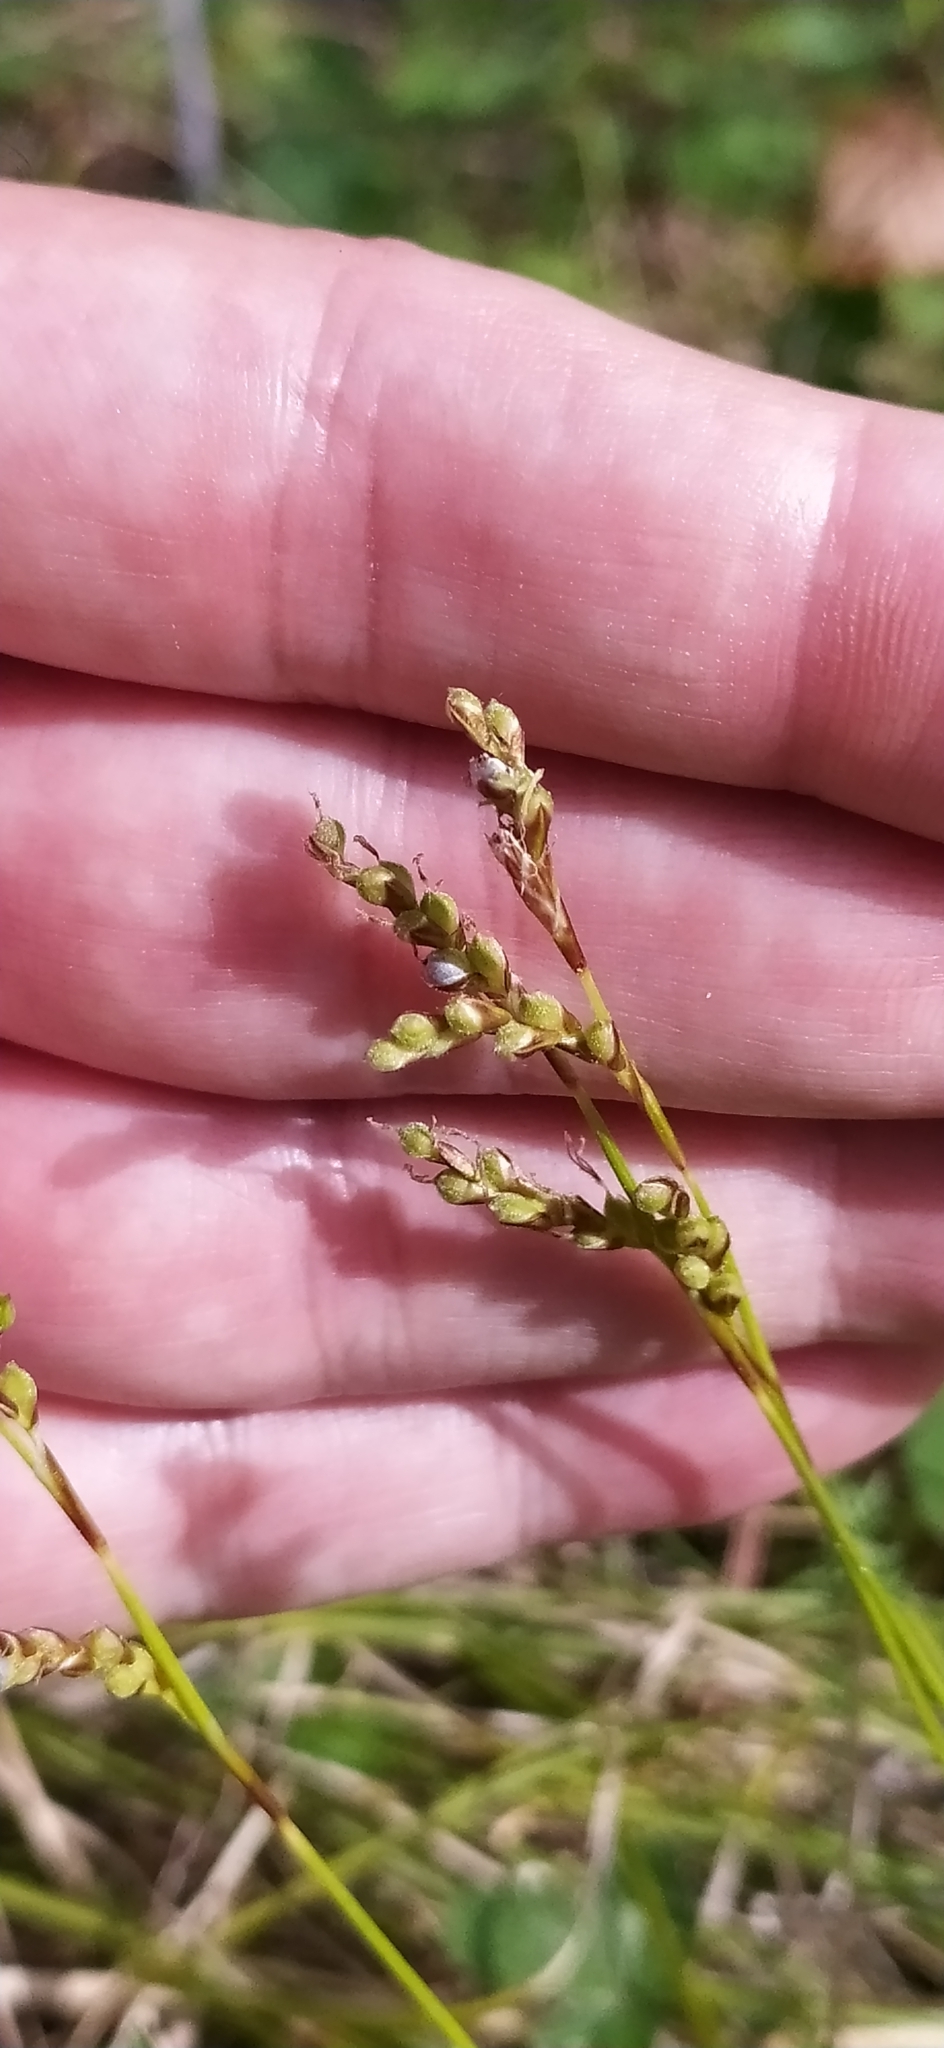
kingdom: Plantae
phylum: Tracheophyta
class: Liliopsida
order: Poales
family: Cyperaceae
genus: Carex
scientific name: Carex digitata
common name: Fingered sedge
